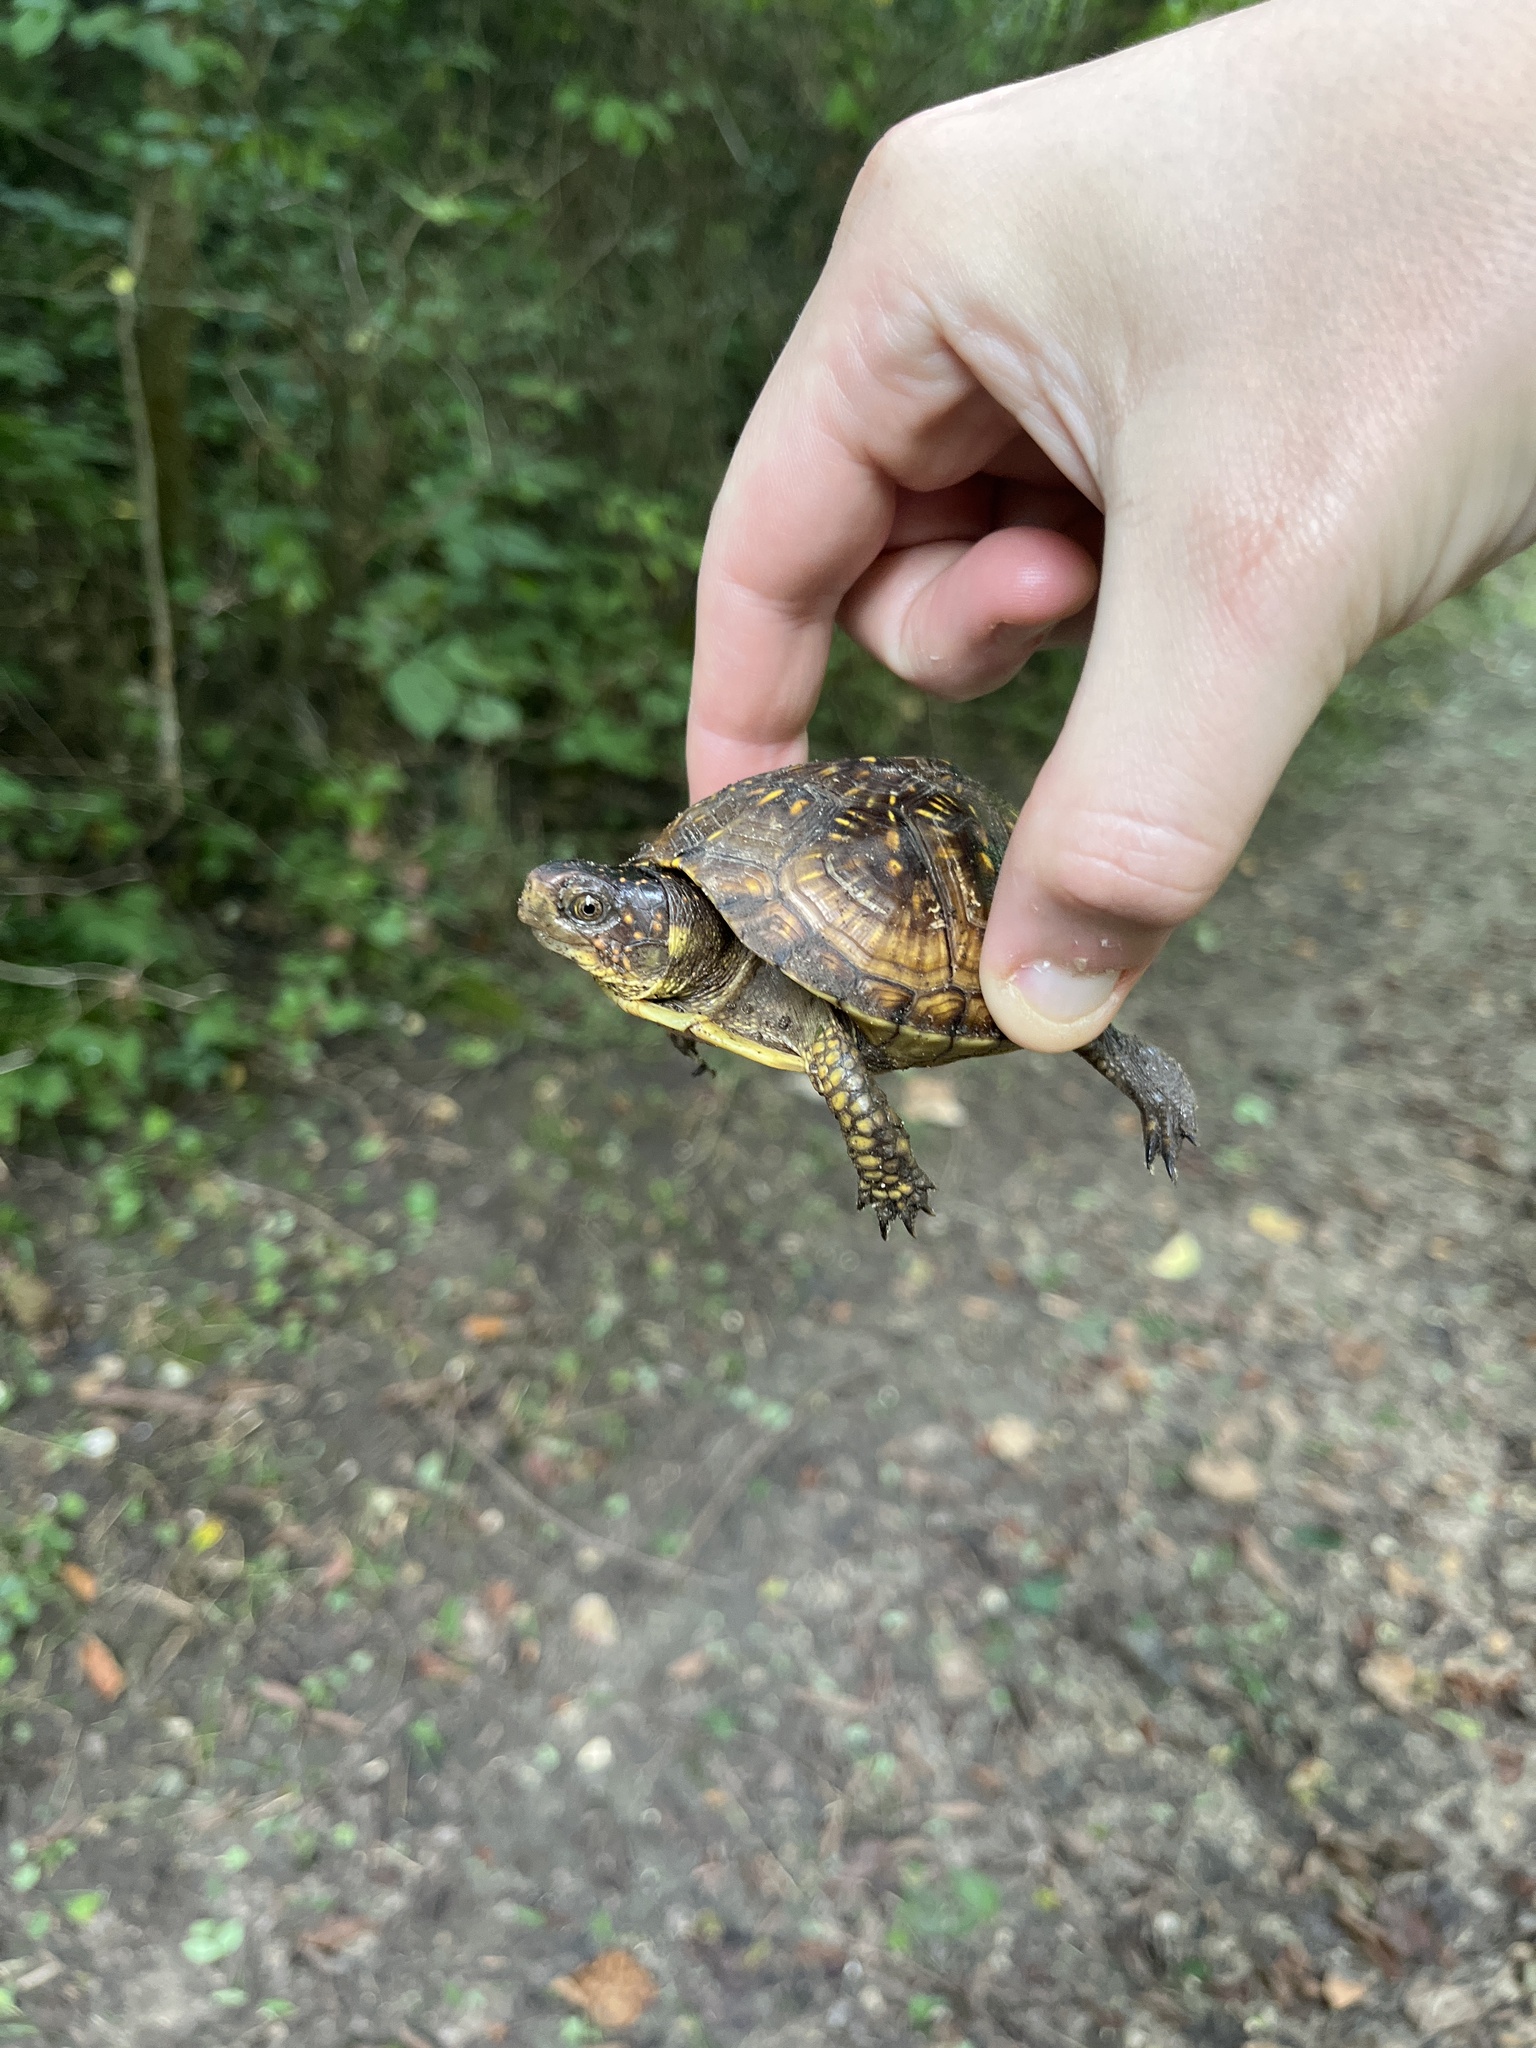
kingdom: Animalia
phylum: Chordata
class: Testudines
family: Emydidae
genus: Terrapene
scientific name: Terrapene carolina
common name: Common box turtle
